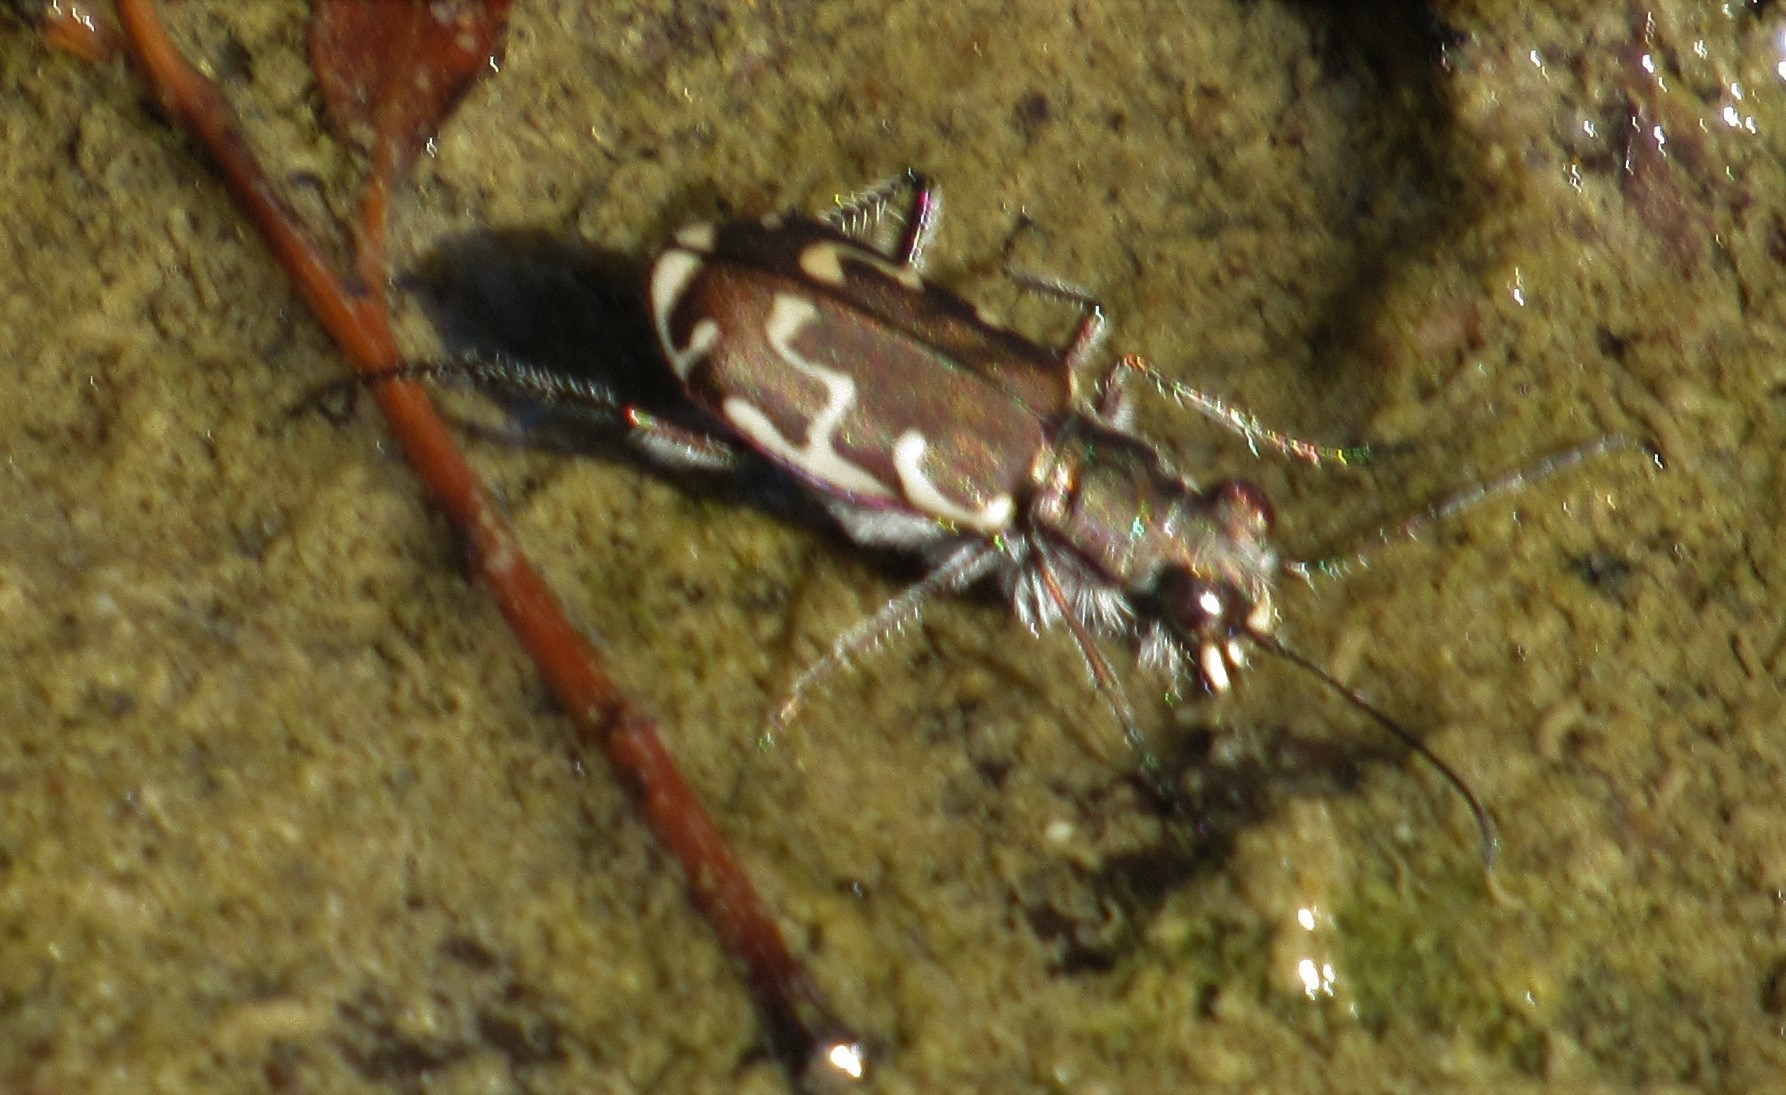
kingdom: Animalia
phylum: Arthropoda
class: Insecta
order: Coleoptera
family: Carabidae
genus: Cicindela
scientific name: Cicindela repanda
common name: Bronzed tiger beetle
